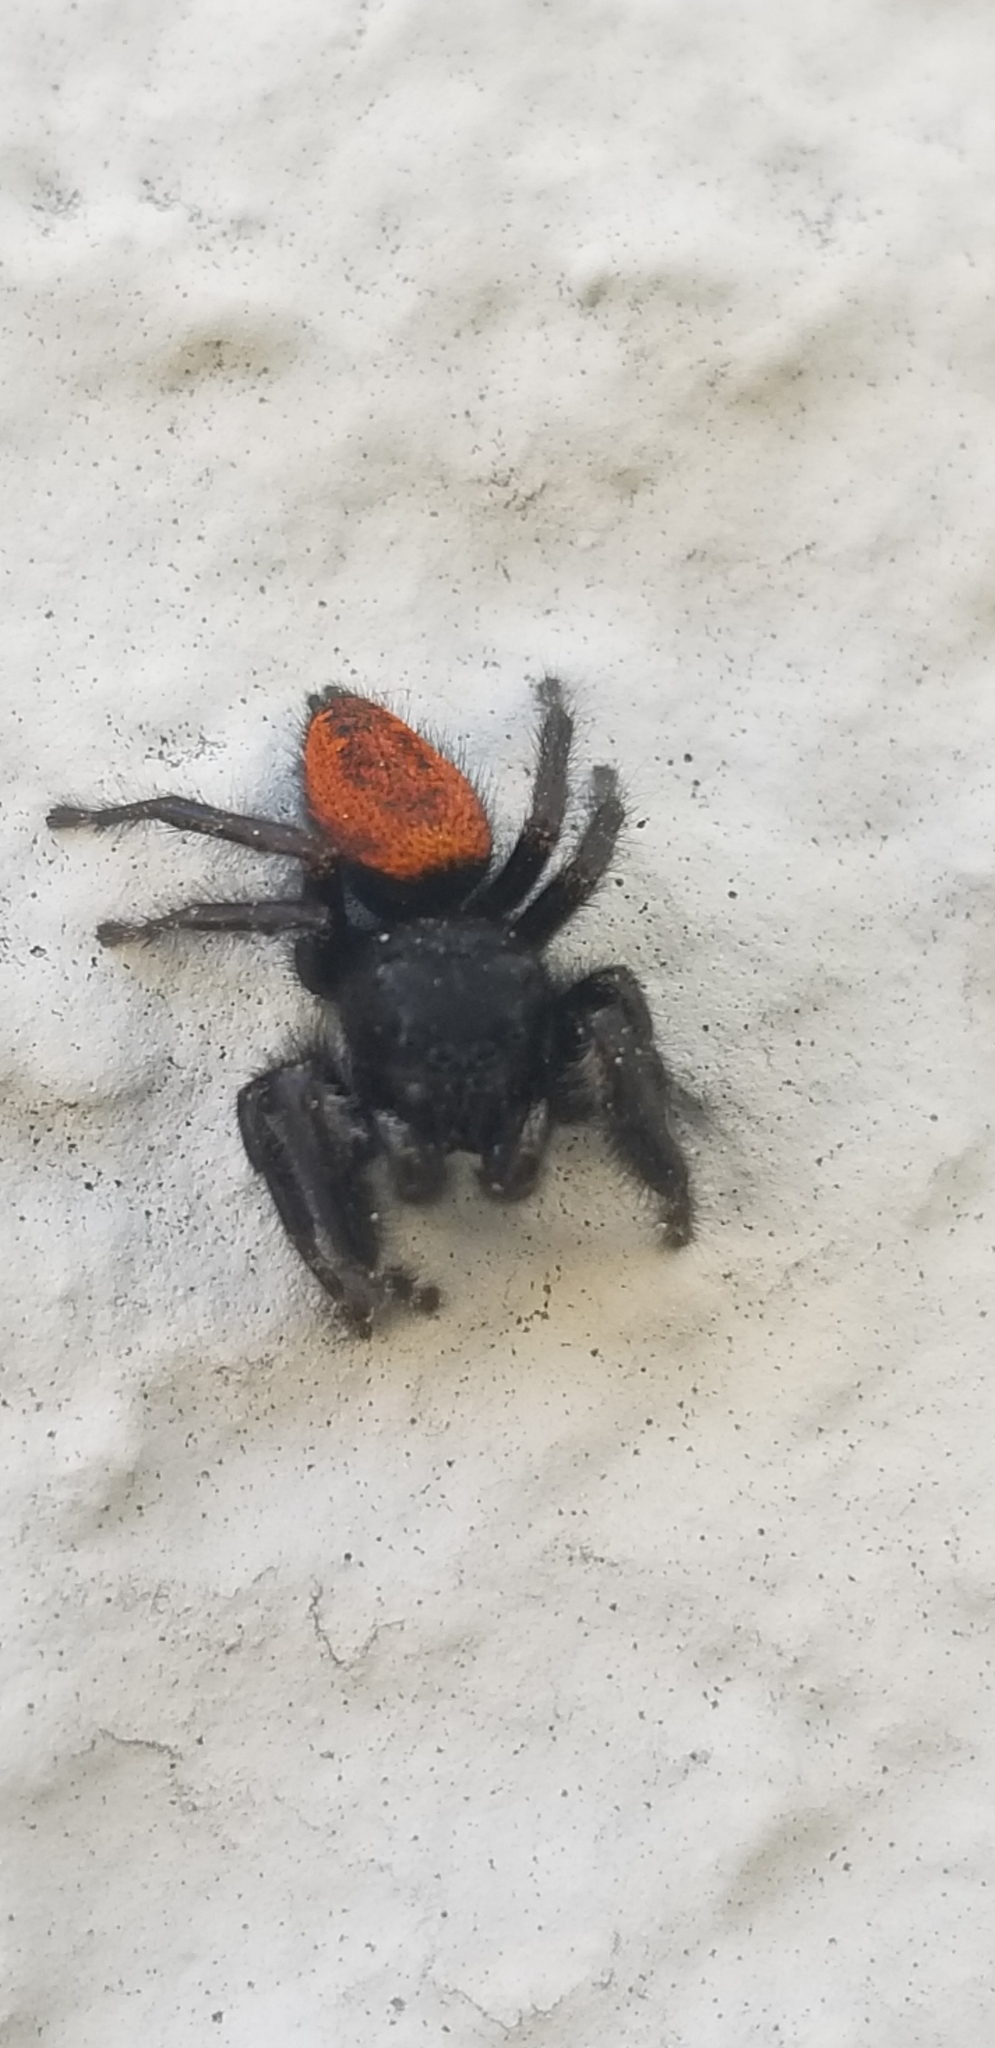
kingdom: Animalia
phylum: Arthropoda
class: Arachnida
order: Araneae
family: Salticidae
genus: Phidippus
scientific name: Phidippus johnsoni
